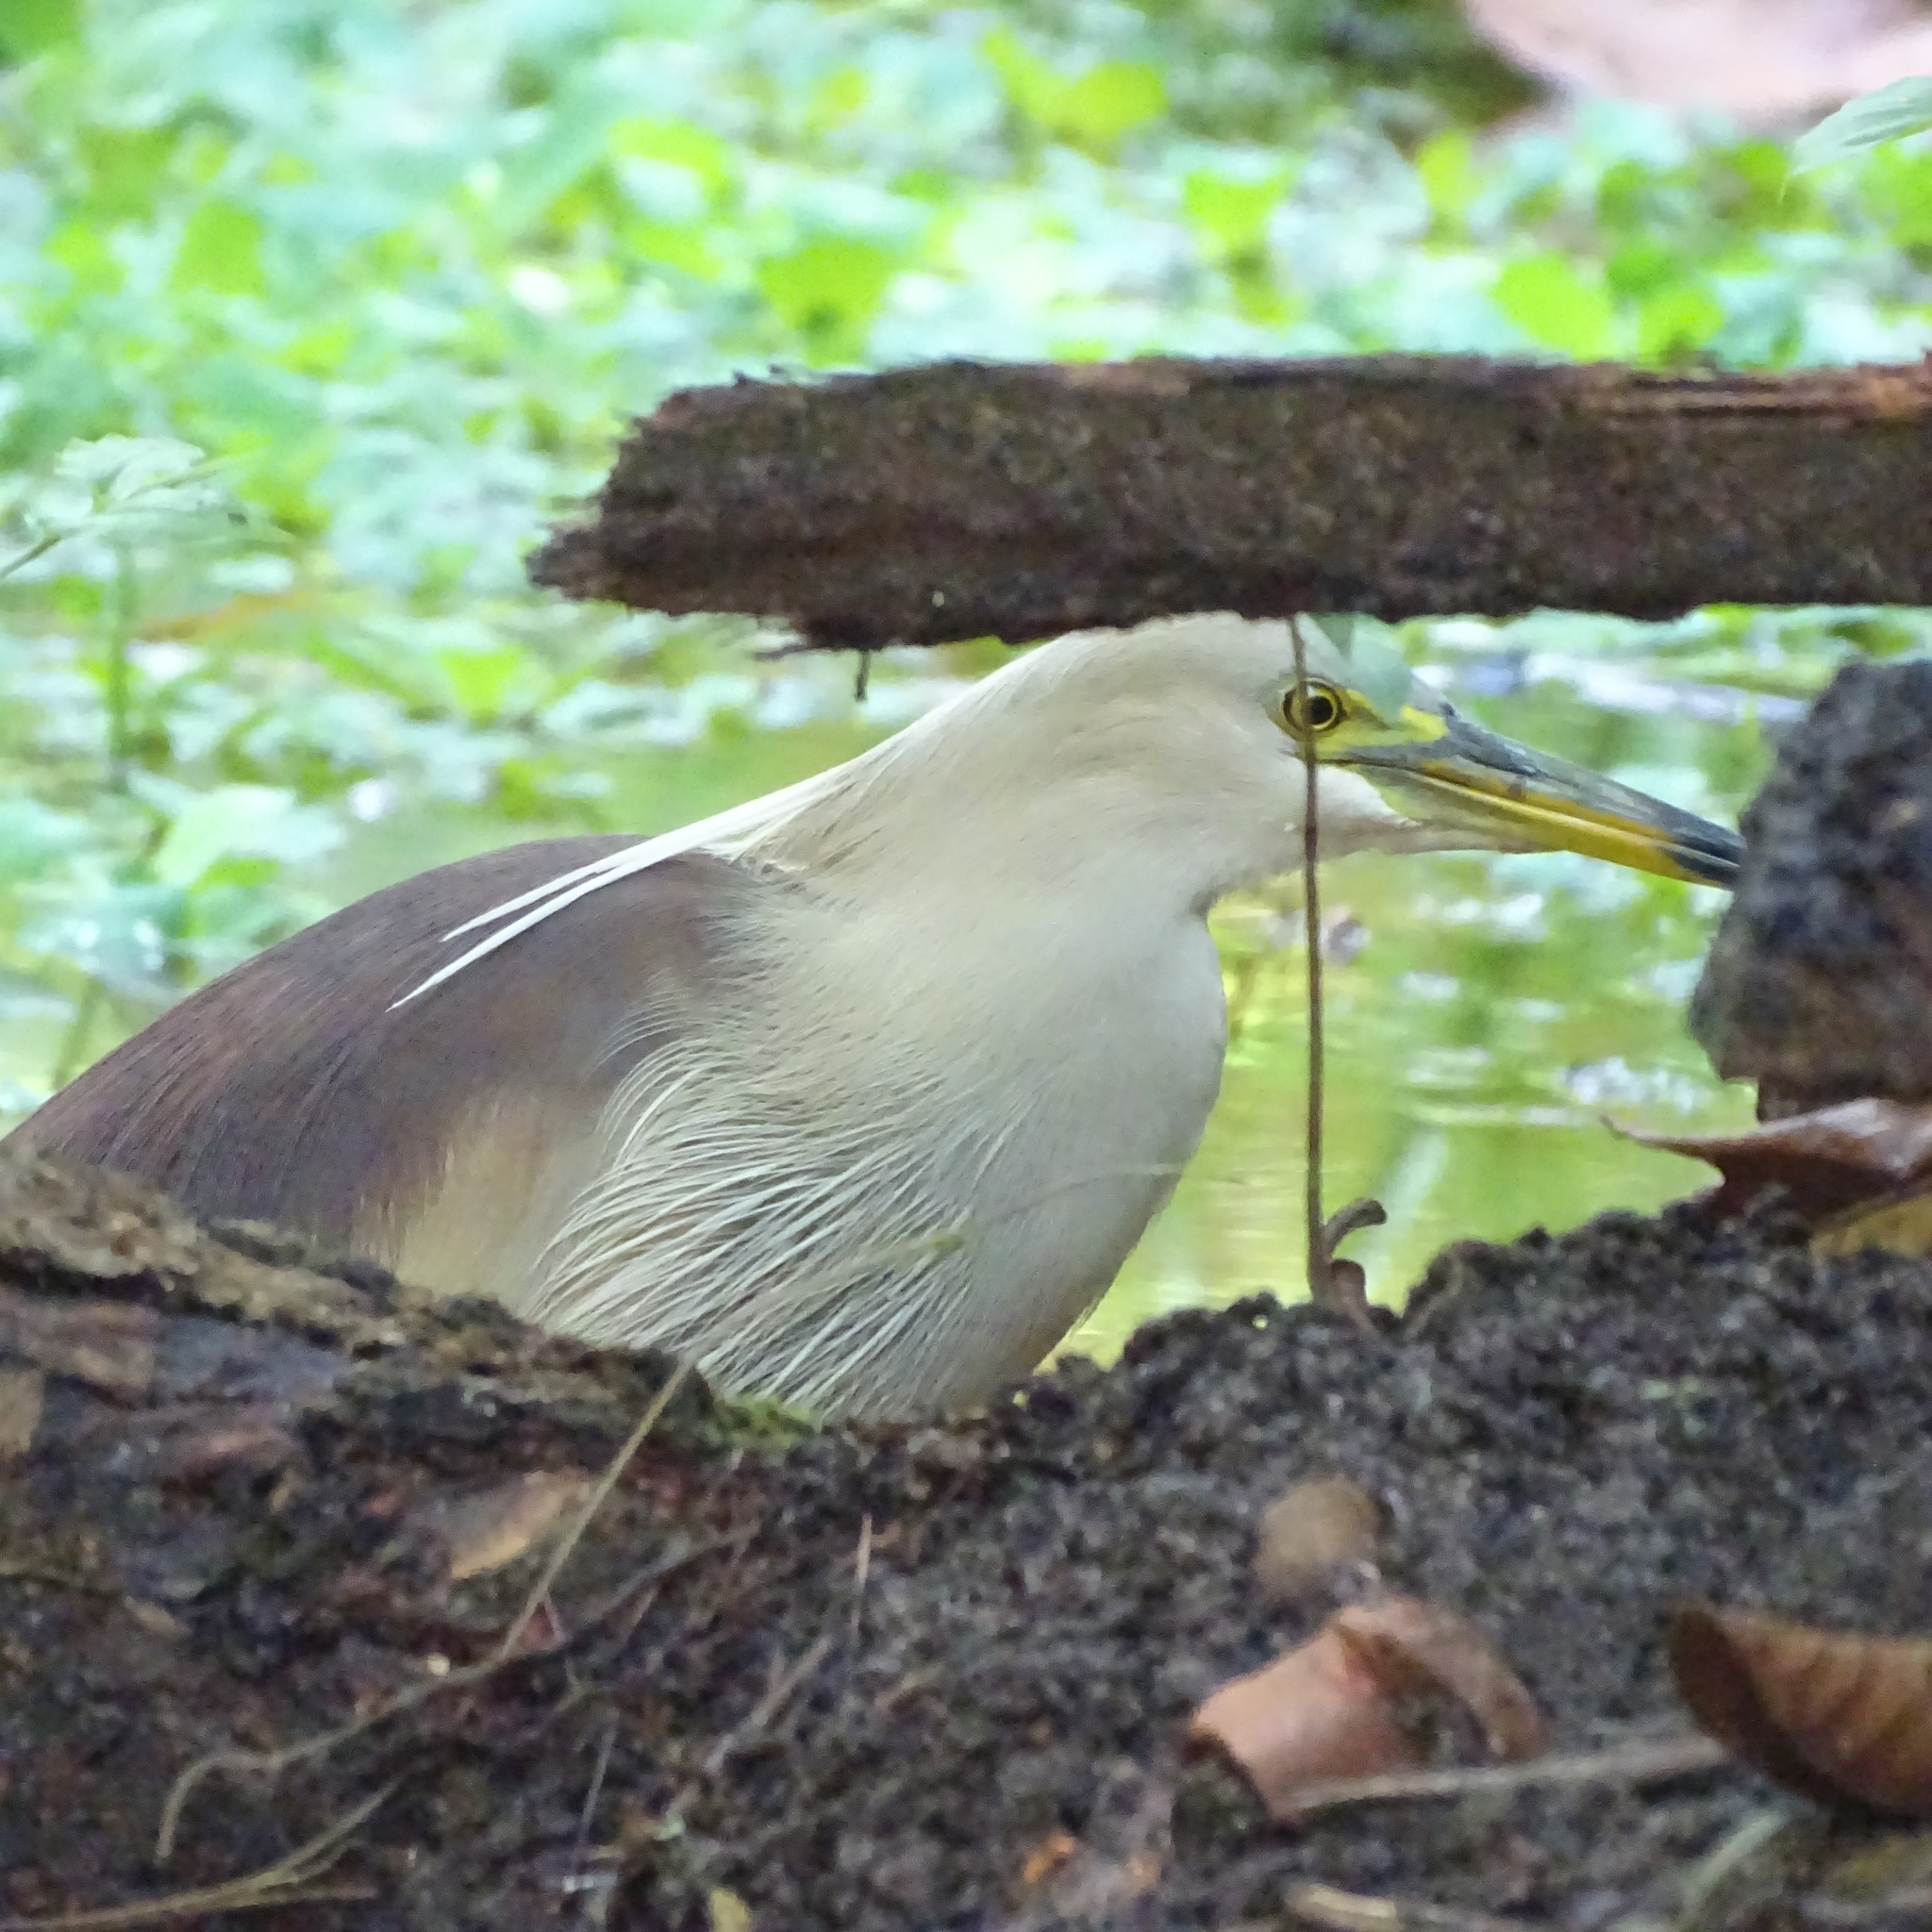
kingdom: Animalia
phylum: Chordata
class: Aves
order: Pelecaniformes
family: Ardeidae
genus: Ardeola
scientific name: Ardeola grayii
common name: Indian pond heron
